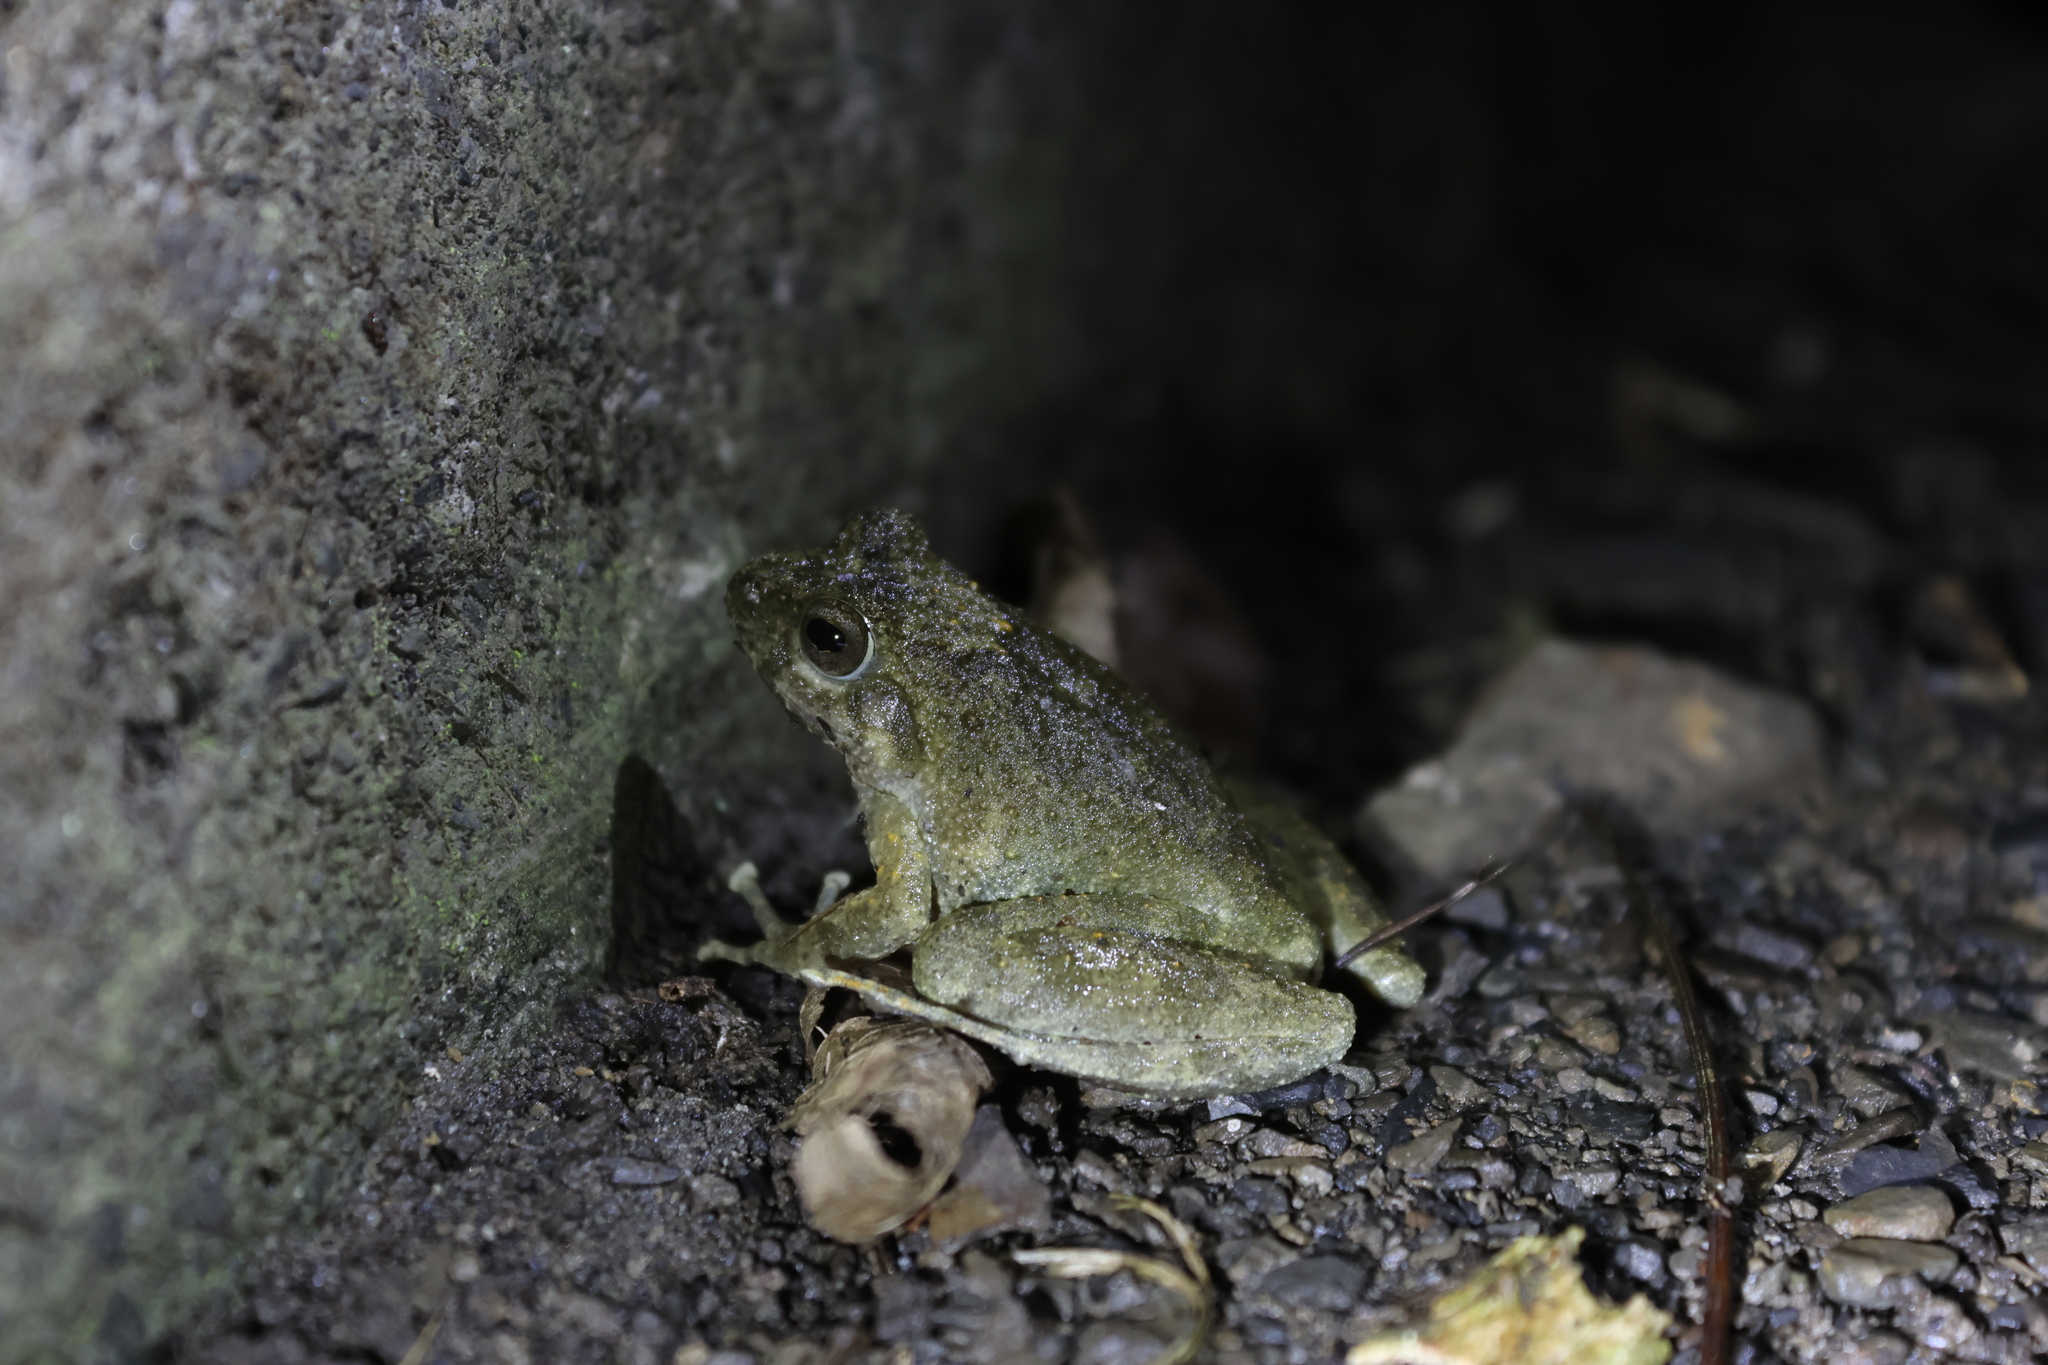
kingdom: Animalia
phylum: Chordata
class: Amphibia
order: Anura
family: Rhacophoridae
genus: Buergeria
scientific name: Buergeria otai
